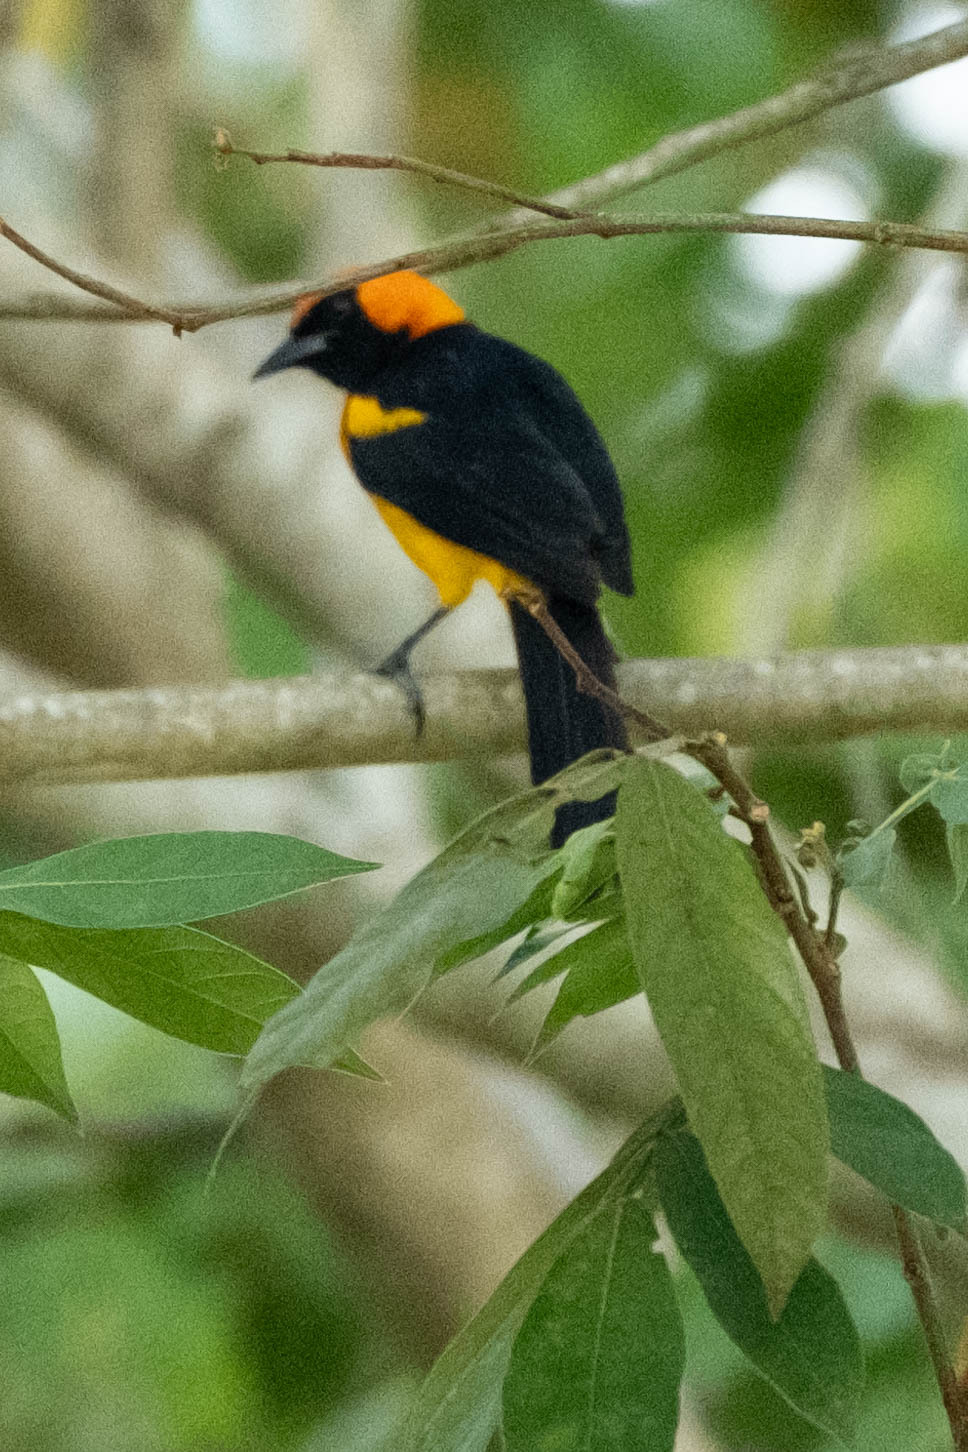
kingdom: Animalia
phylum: Chordata
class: Aves
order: Passeriformes
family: Icteridae
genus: Icterus
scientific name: Icterus auricapillus
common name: Orange-crowned oriole
